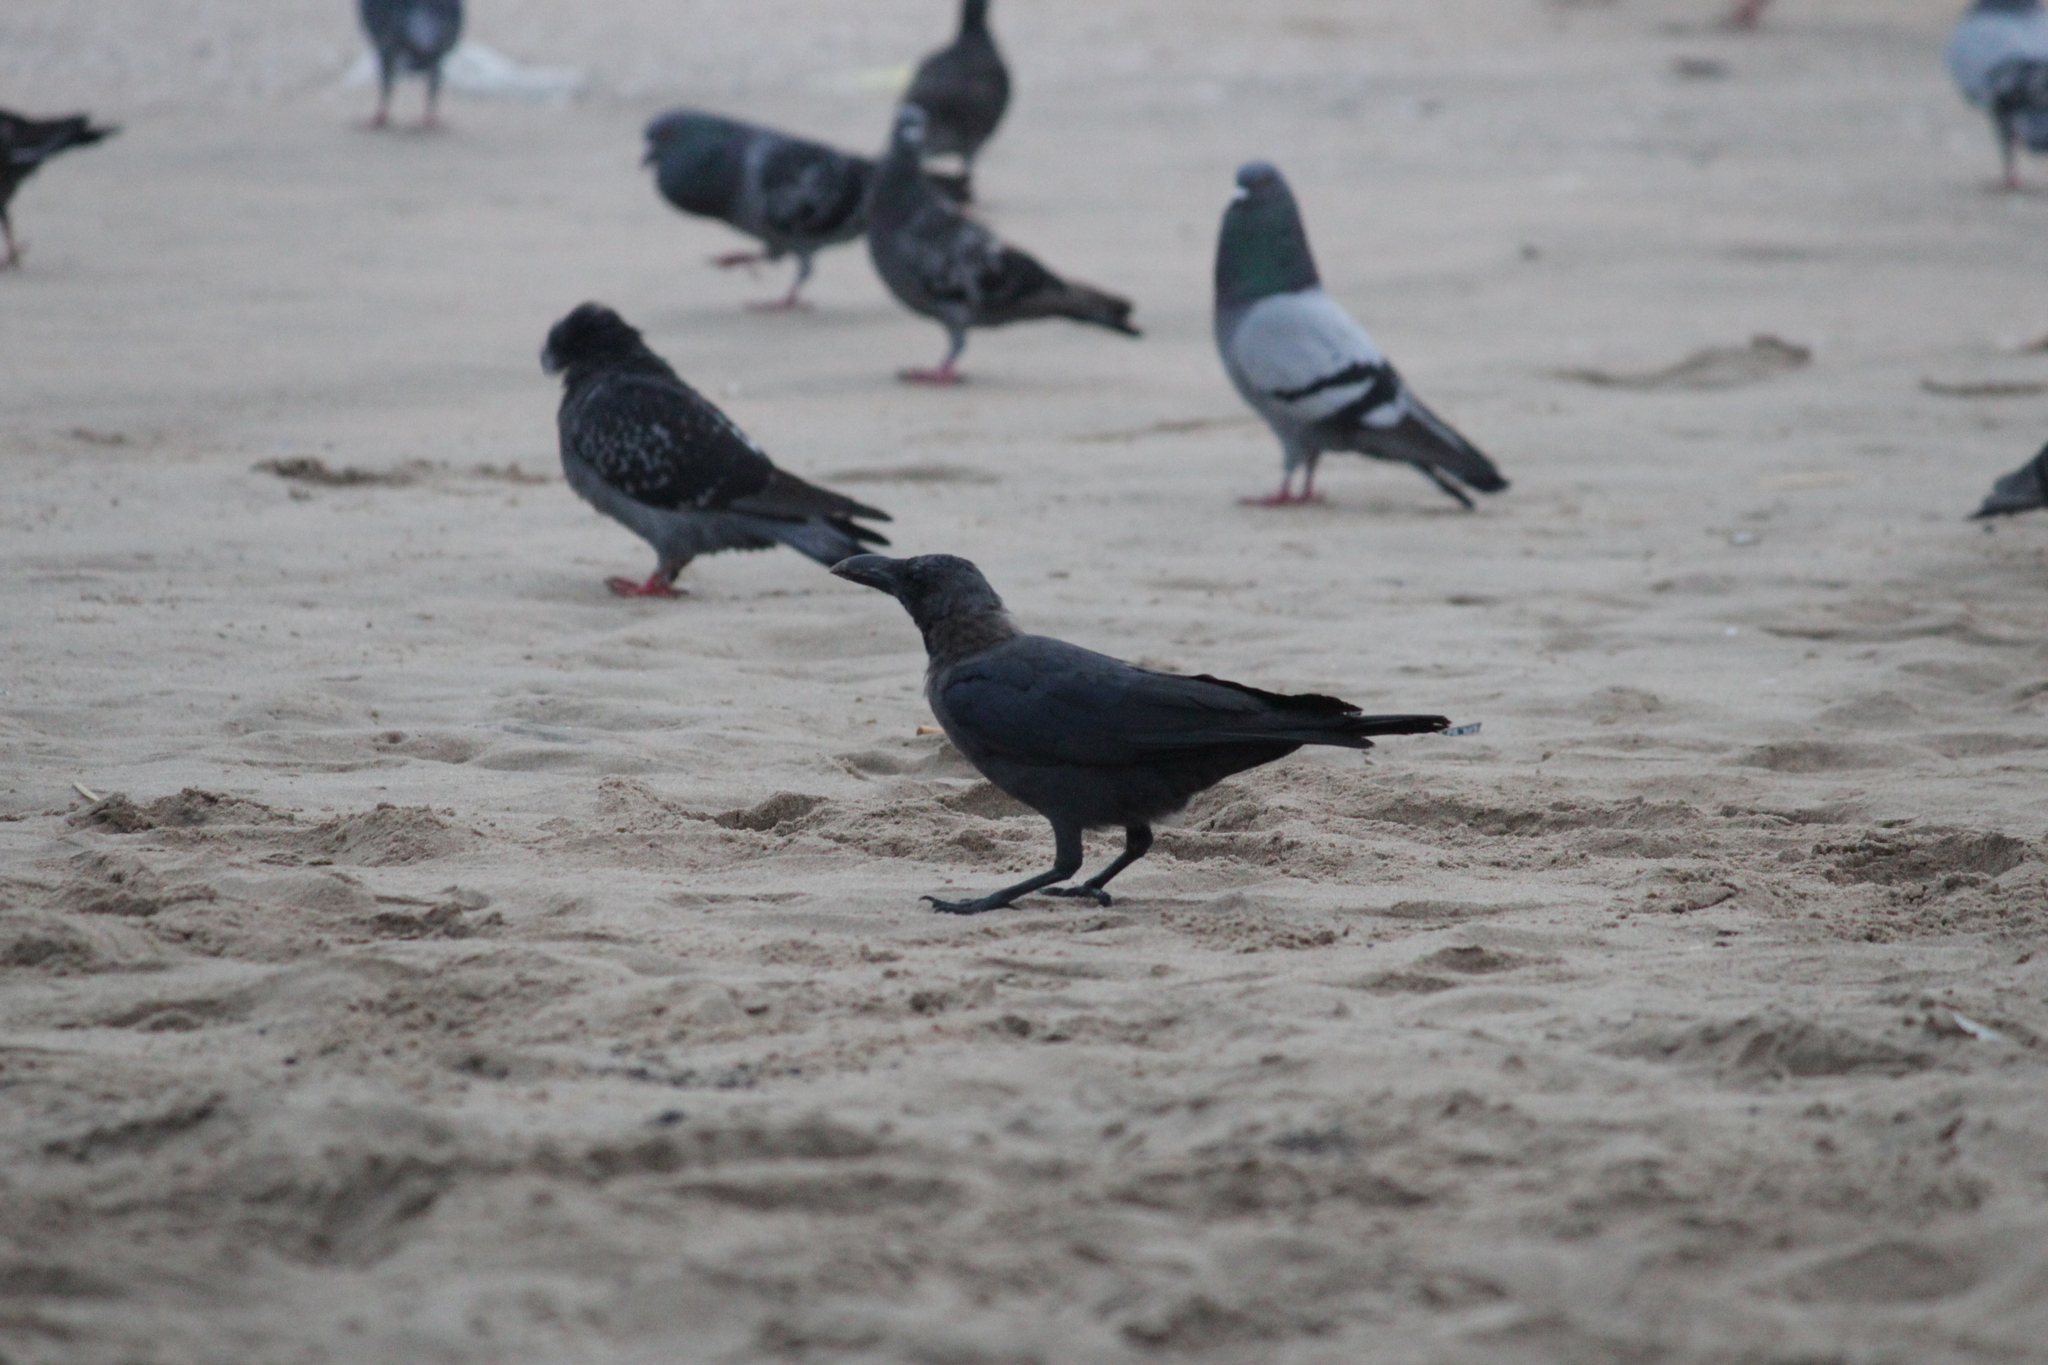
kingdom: Animalia
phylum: Chordata
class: Aves
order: Passeriformes
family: Corvidae
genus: Corvus
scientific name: Corvus splendens
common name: House crow
